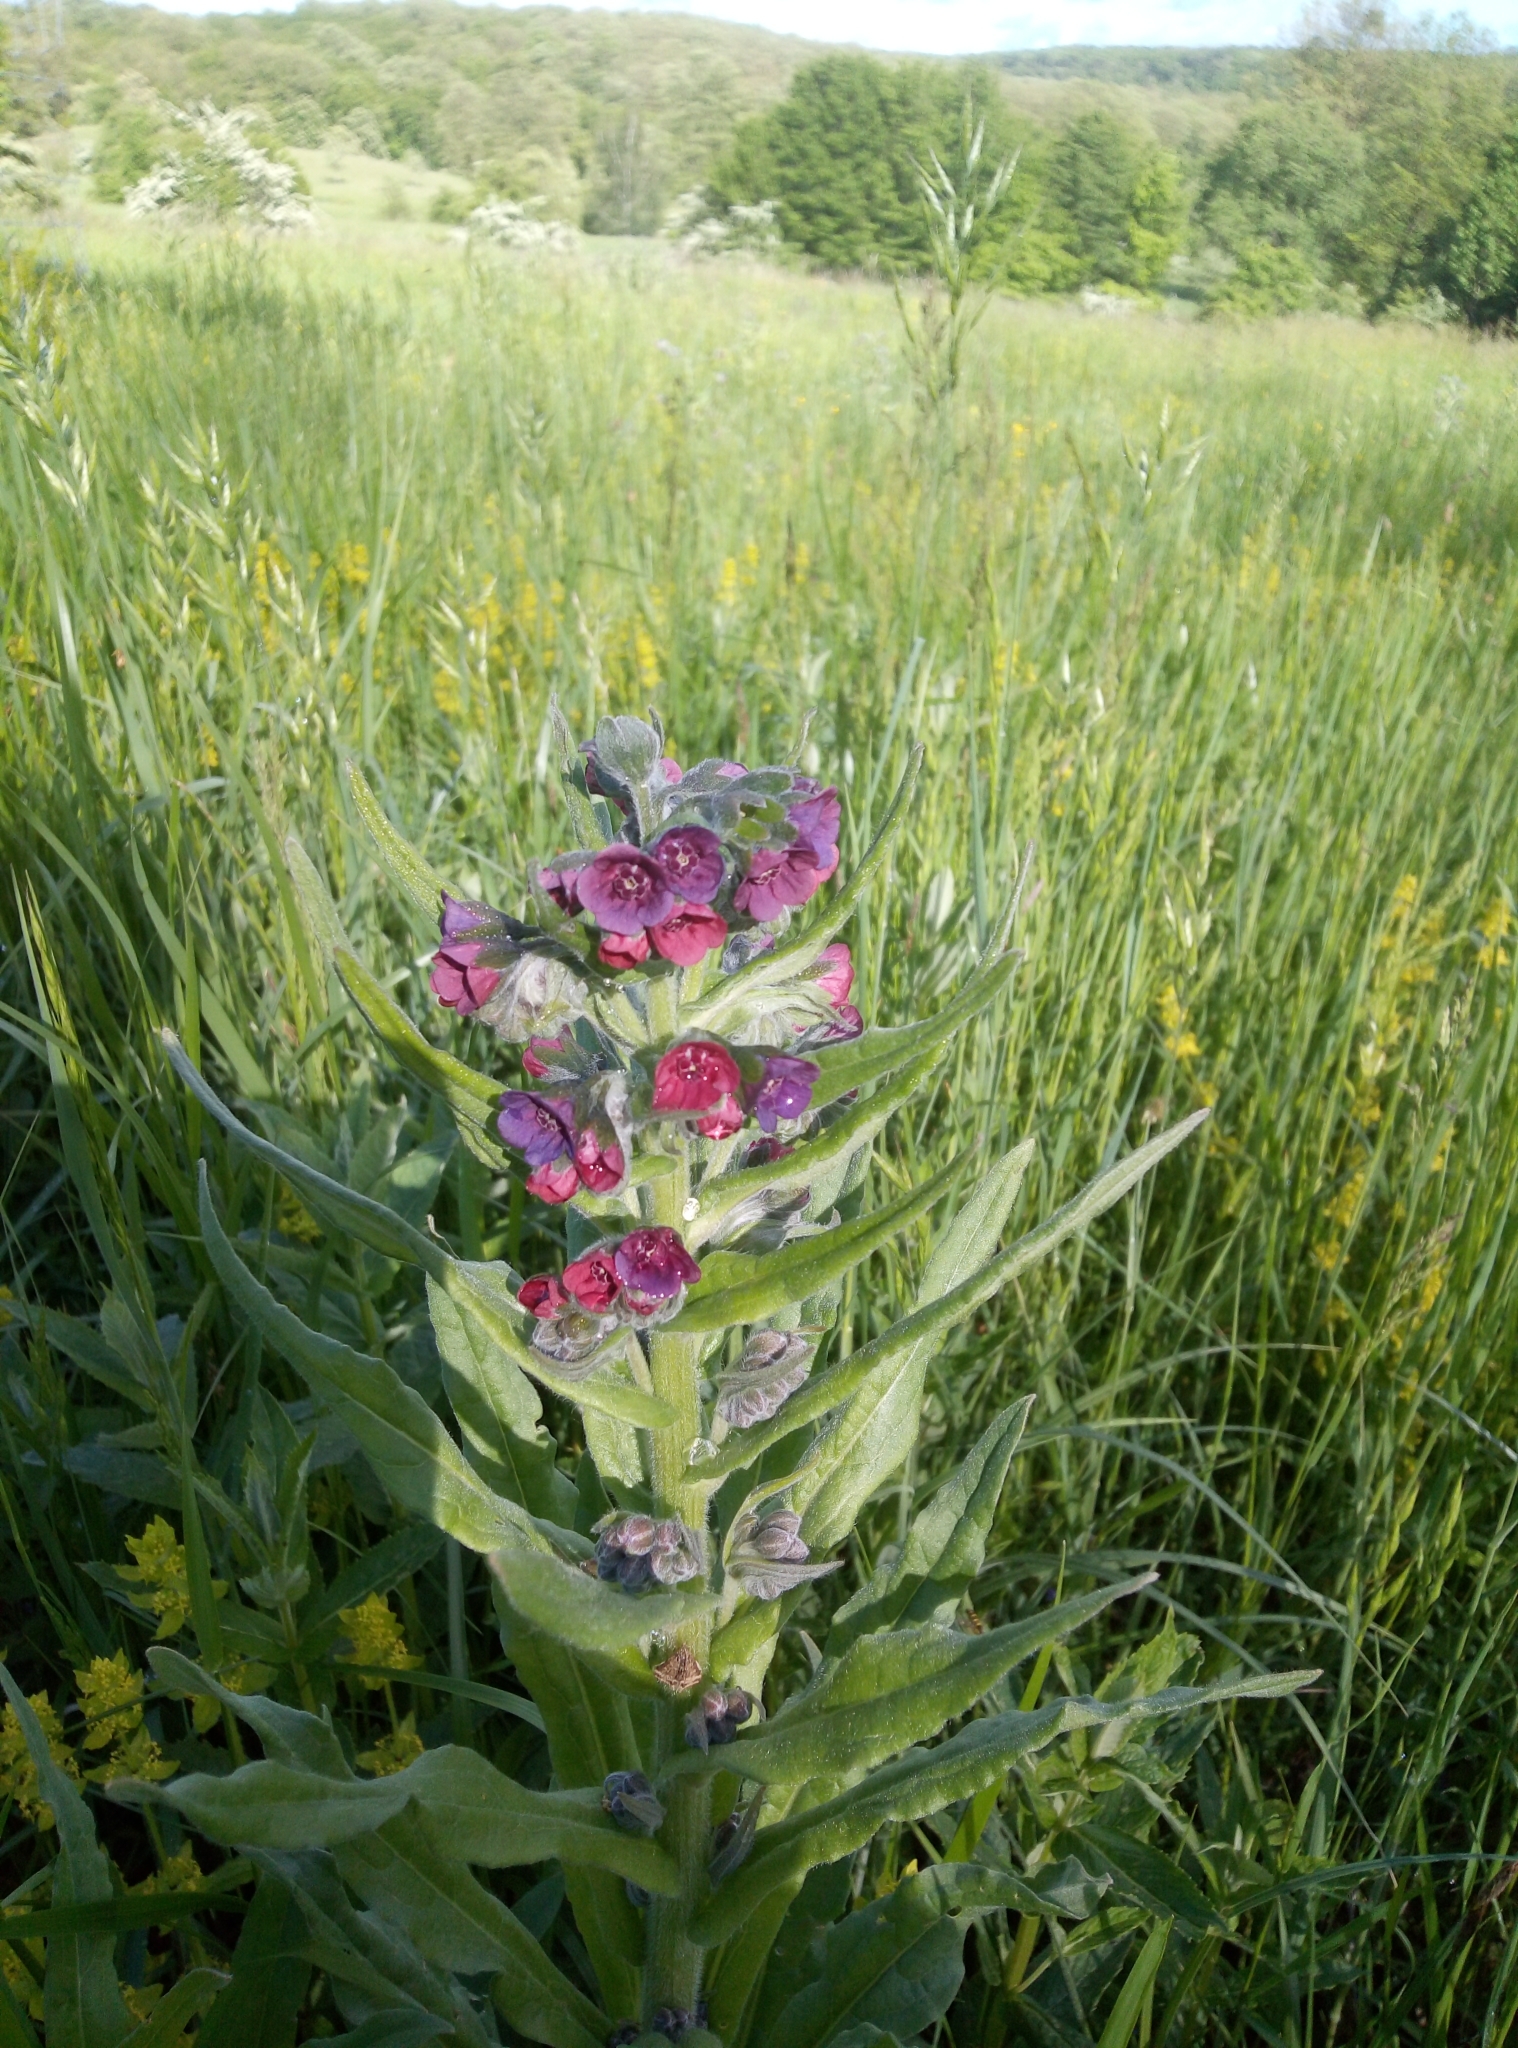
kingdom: Plantae
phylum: Tracheophyta
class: Magnoliopsida
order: Boraginales
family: Boraginaceae
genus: Cynoglossum
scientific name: Cynoglossum officinale
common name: Hound's-tongue
